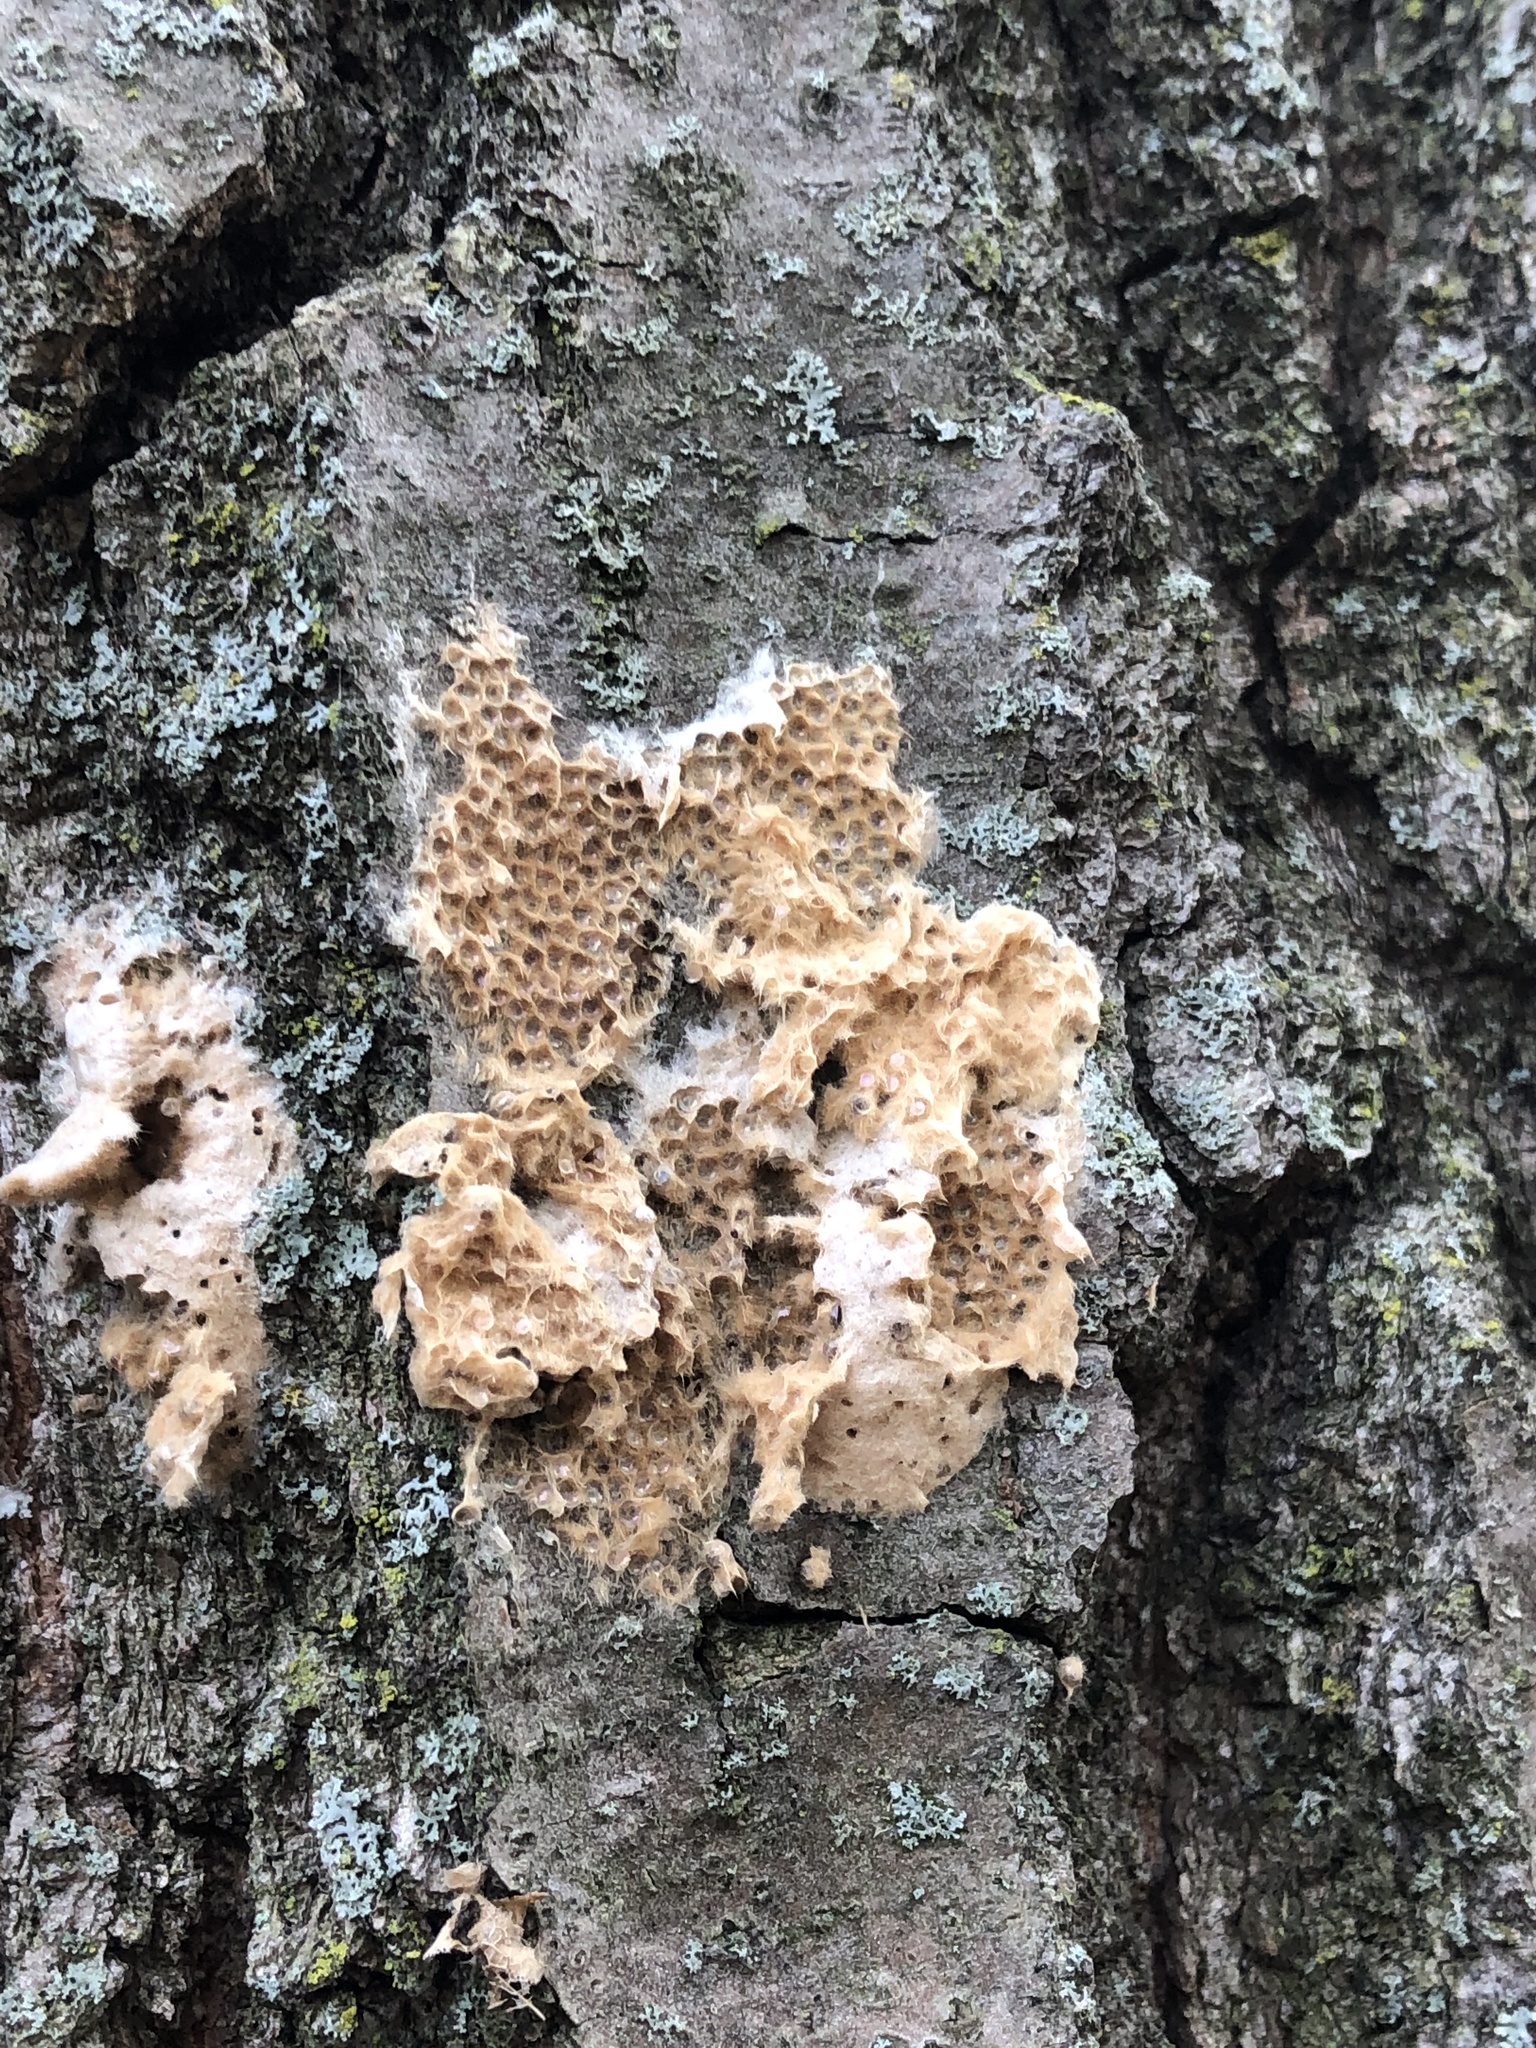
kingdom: Animalia
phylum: Arthropoda
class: Insecta
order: Lepidoptera
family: Erebidae
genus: Lymantria
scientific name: Lymantria dispar
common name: Gypsy moth
